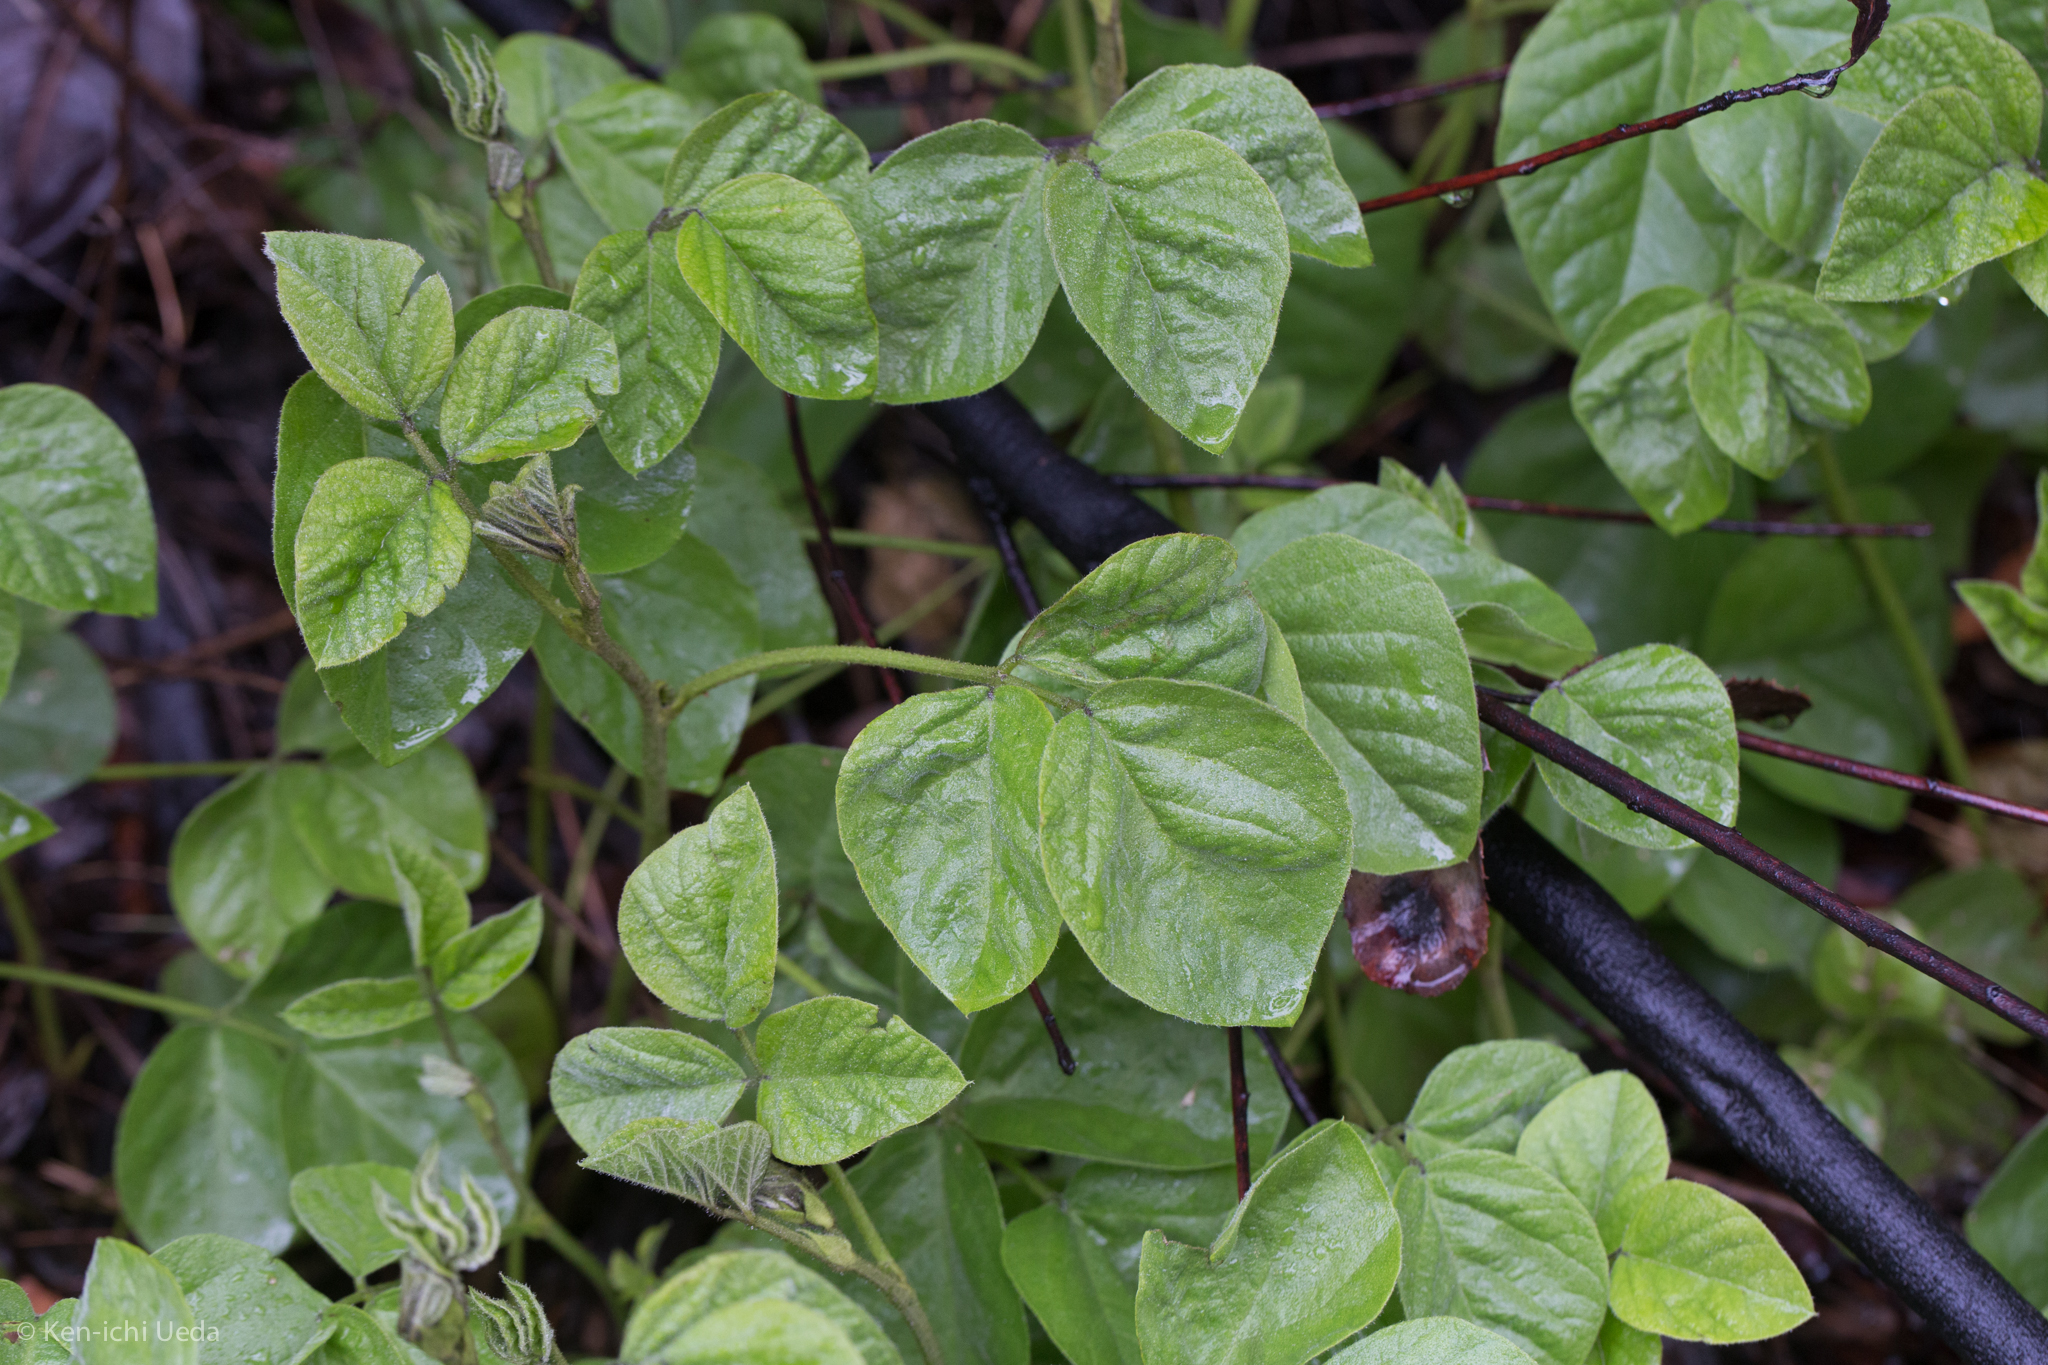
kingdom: Plantae
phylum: Tracheophyta
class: Magnoliopsida
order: Fabales
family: Fabaceae
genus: Hoita
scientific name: Hoita strobilina
